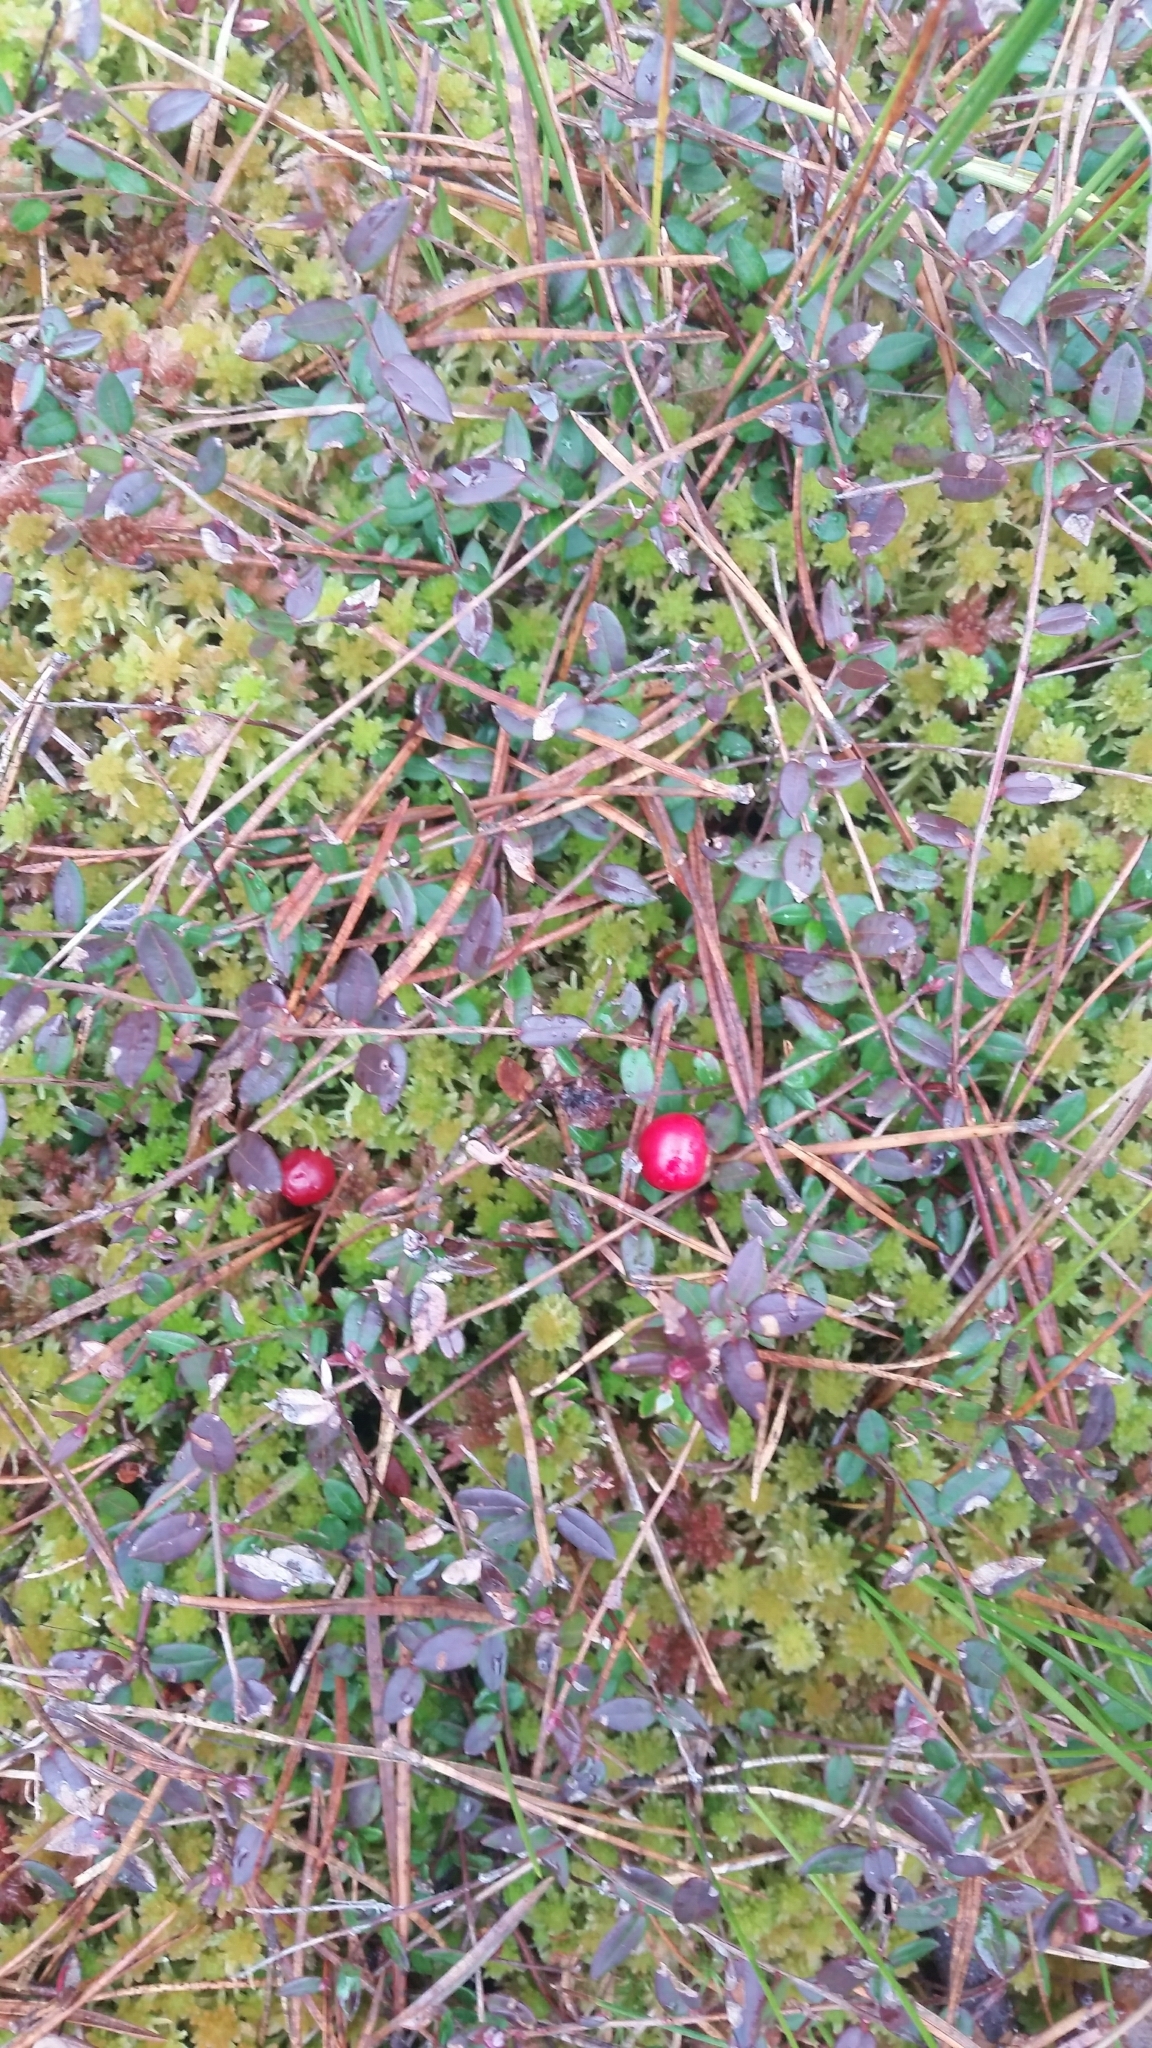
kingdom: Plantae
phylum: Tracheophyta
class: Magnoliopsida
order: Ericales
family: Ericaceae
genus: Vaccinium
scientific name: Vaccinium oxycoccos
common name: Cranberry
